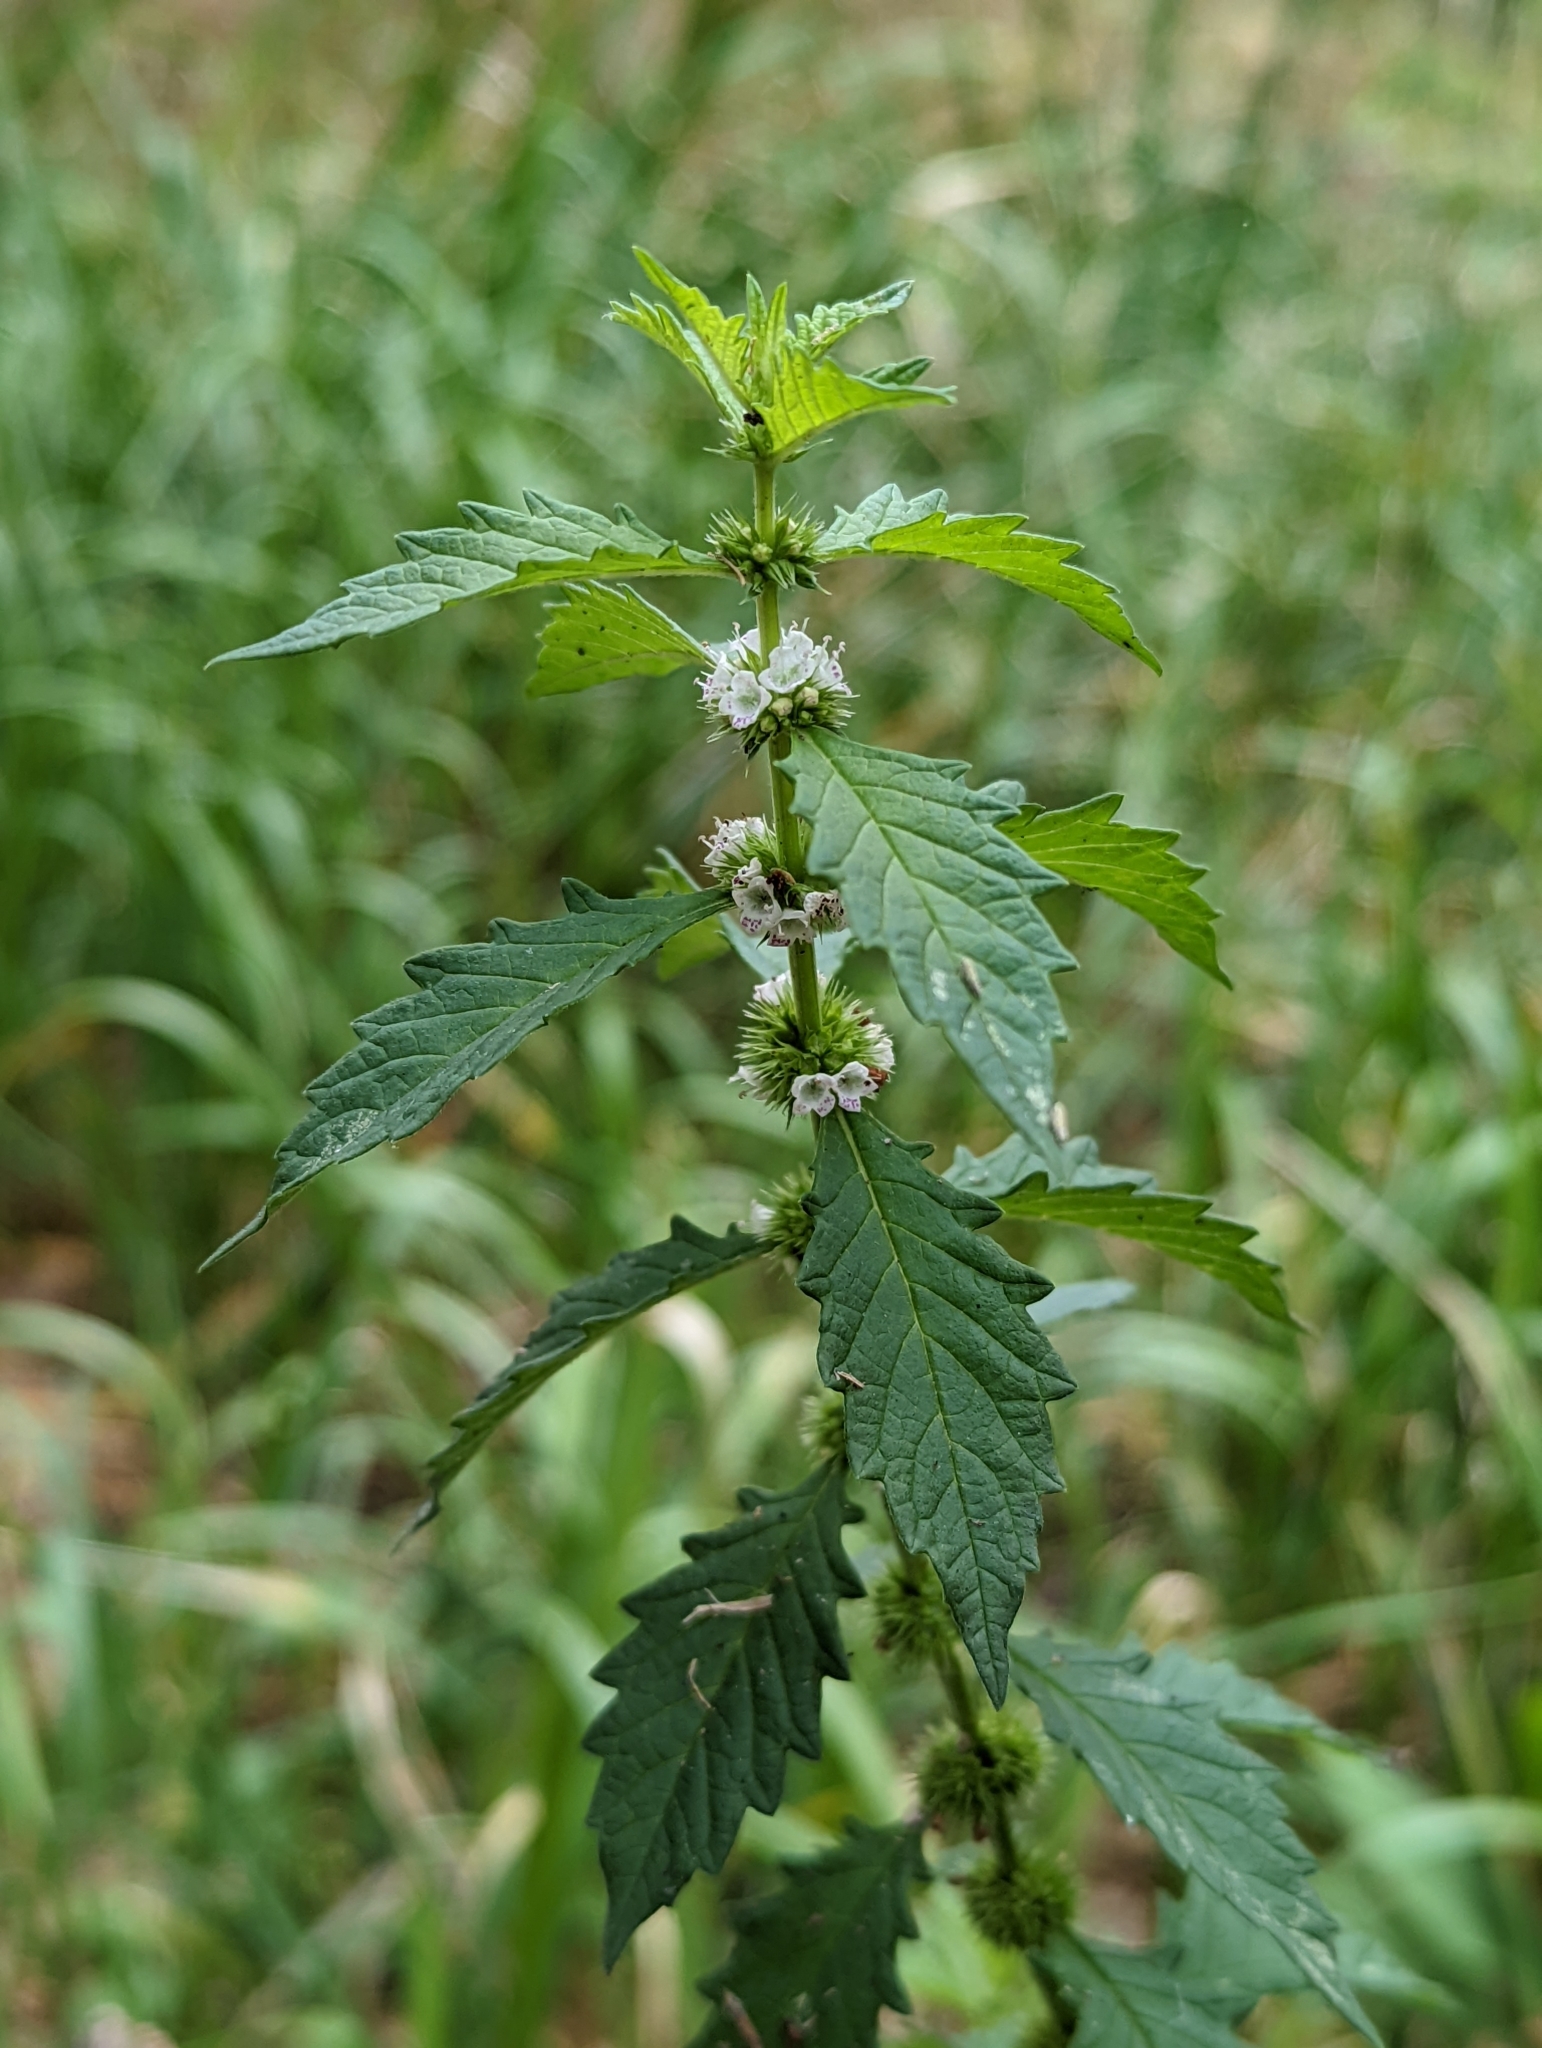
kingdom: Plantae
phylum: Tracheophyta
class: Magnoliopsida
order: Lamiales
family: Lamiaceae
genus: Lycopus
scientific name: Lycopus europaeus
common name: European bugleweed
